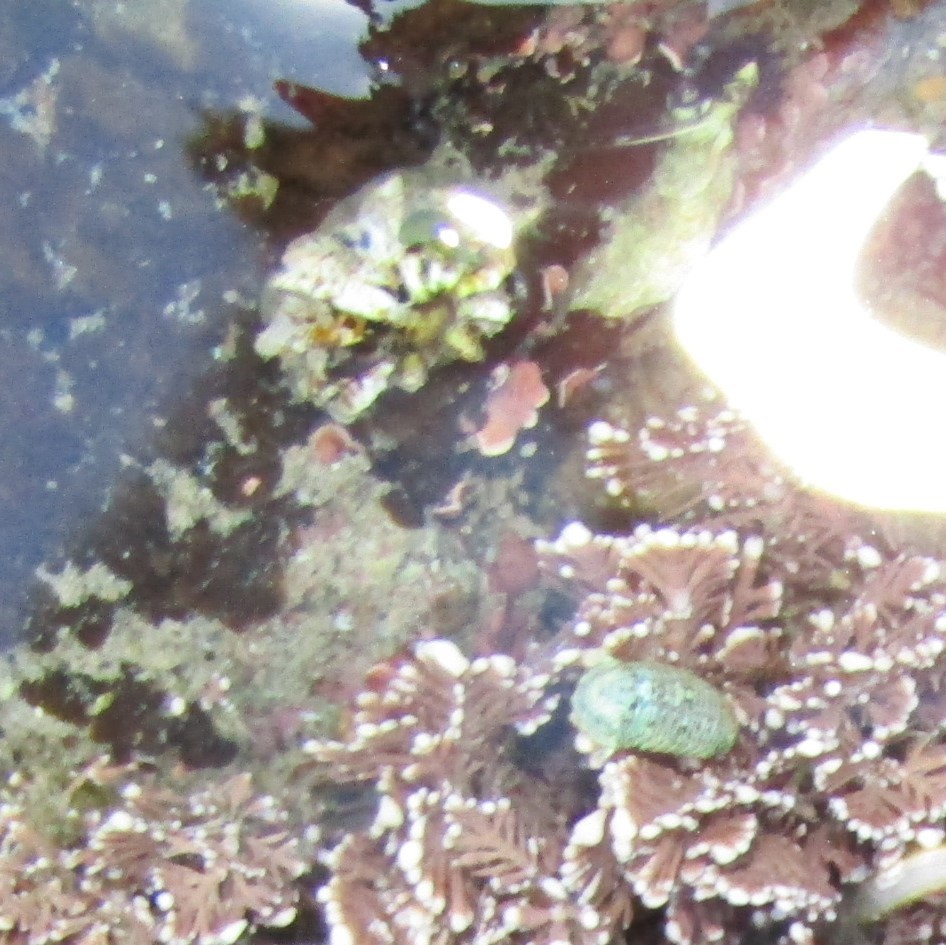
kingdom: Animalia
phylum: Mollusca
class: Gastropoda
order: Siphonariida
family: Siphonariidae
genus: Siphonaria
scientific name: Siphonaria australis
